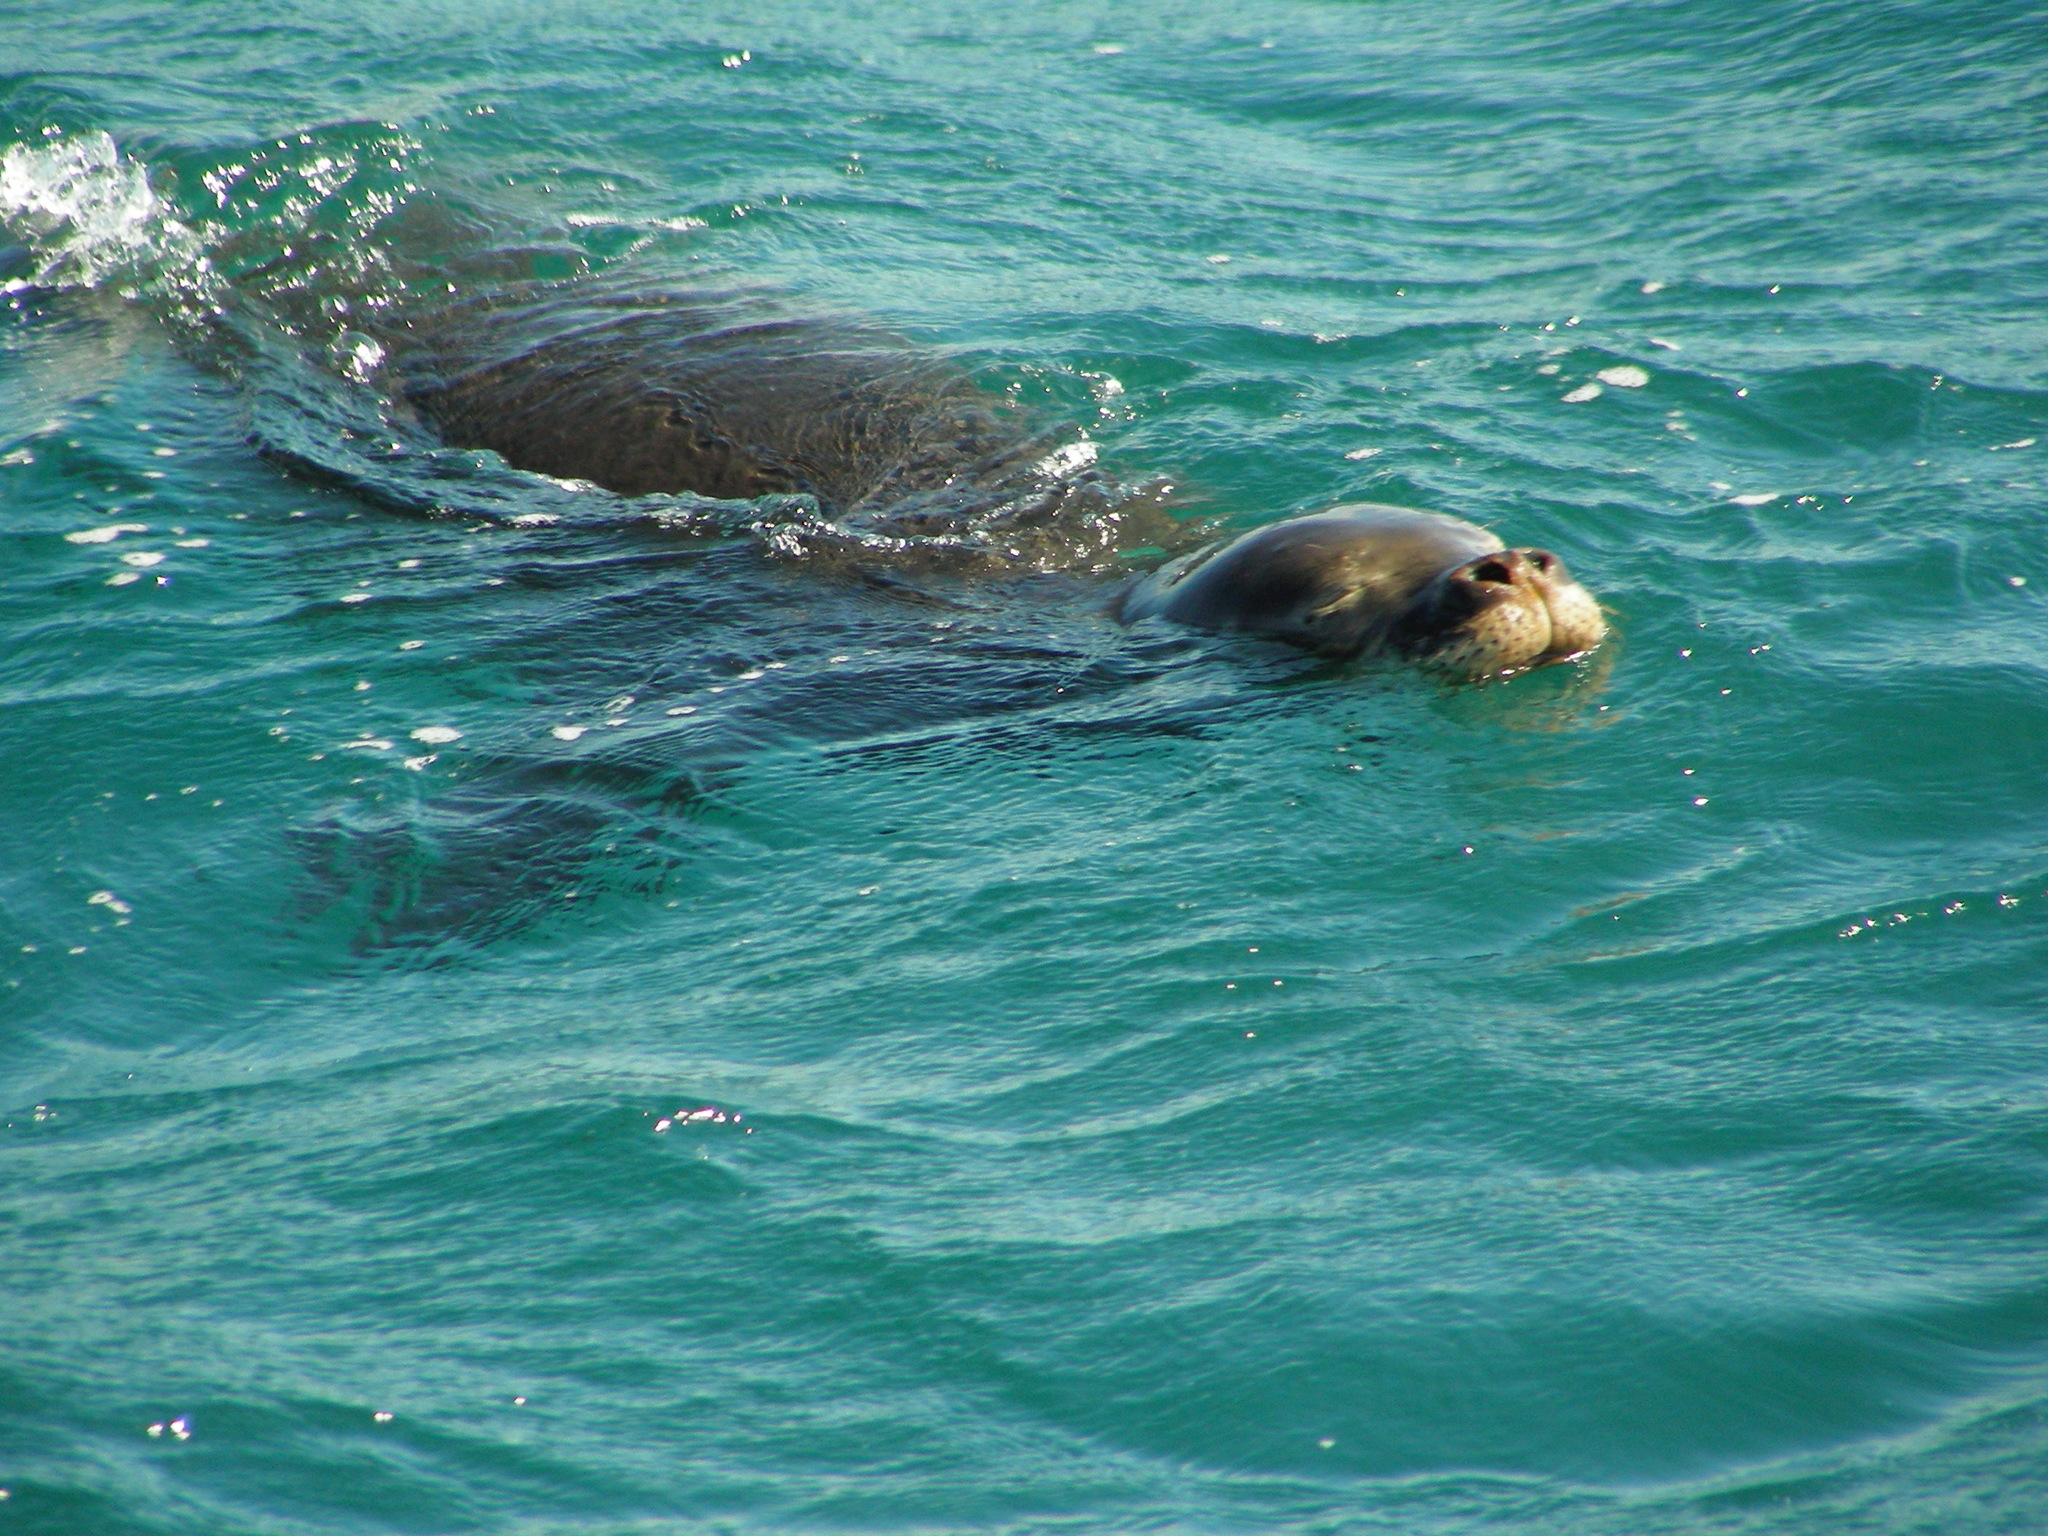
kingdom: Animalia
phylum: Chordata
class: Mammalia
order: Carnivora
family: Phocidae
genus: Neomonachus
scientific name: Neomonachus schauinslandi
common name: Hawaiian monk seal
